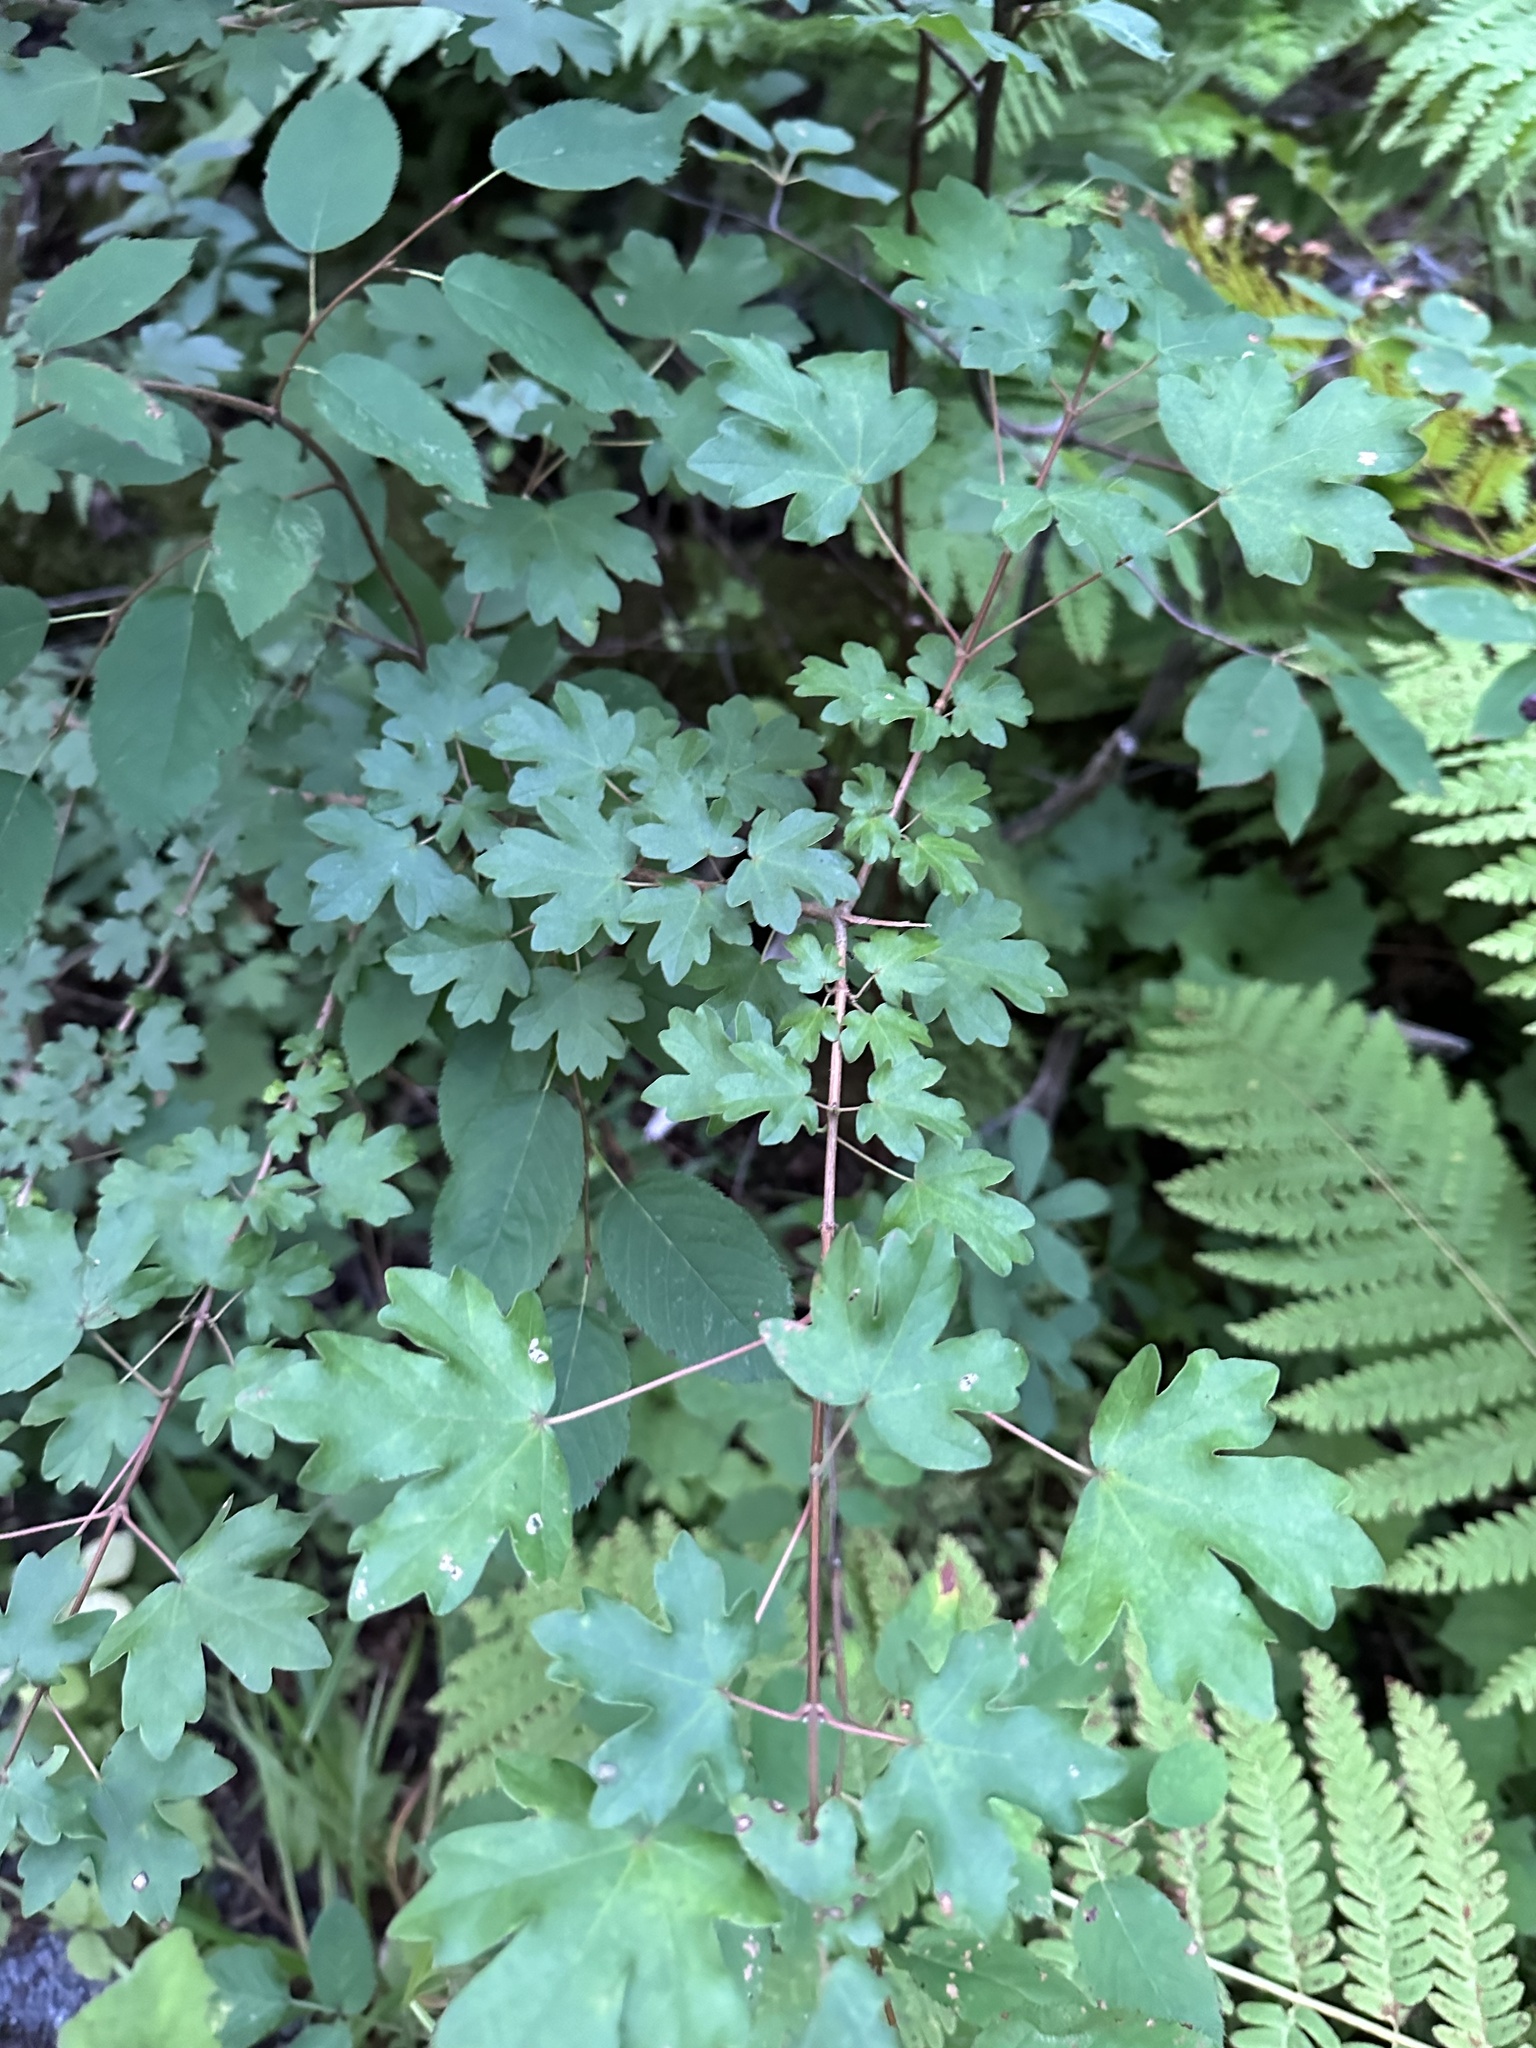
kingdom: Plantae
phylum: Tracheophyta
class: Magnoliopsida
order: Saxifragales
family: Grossulariaceae
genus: Ribes
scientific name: Ribes lacustre
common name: Black gooseberry
